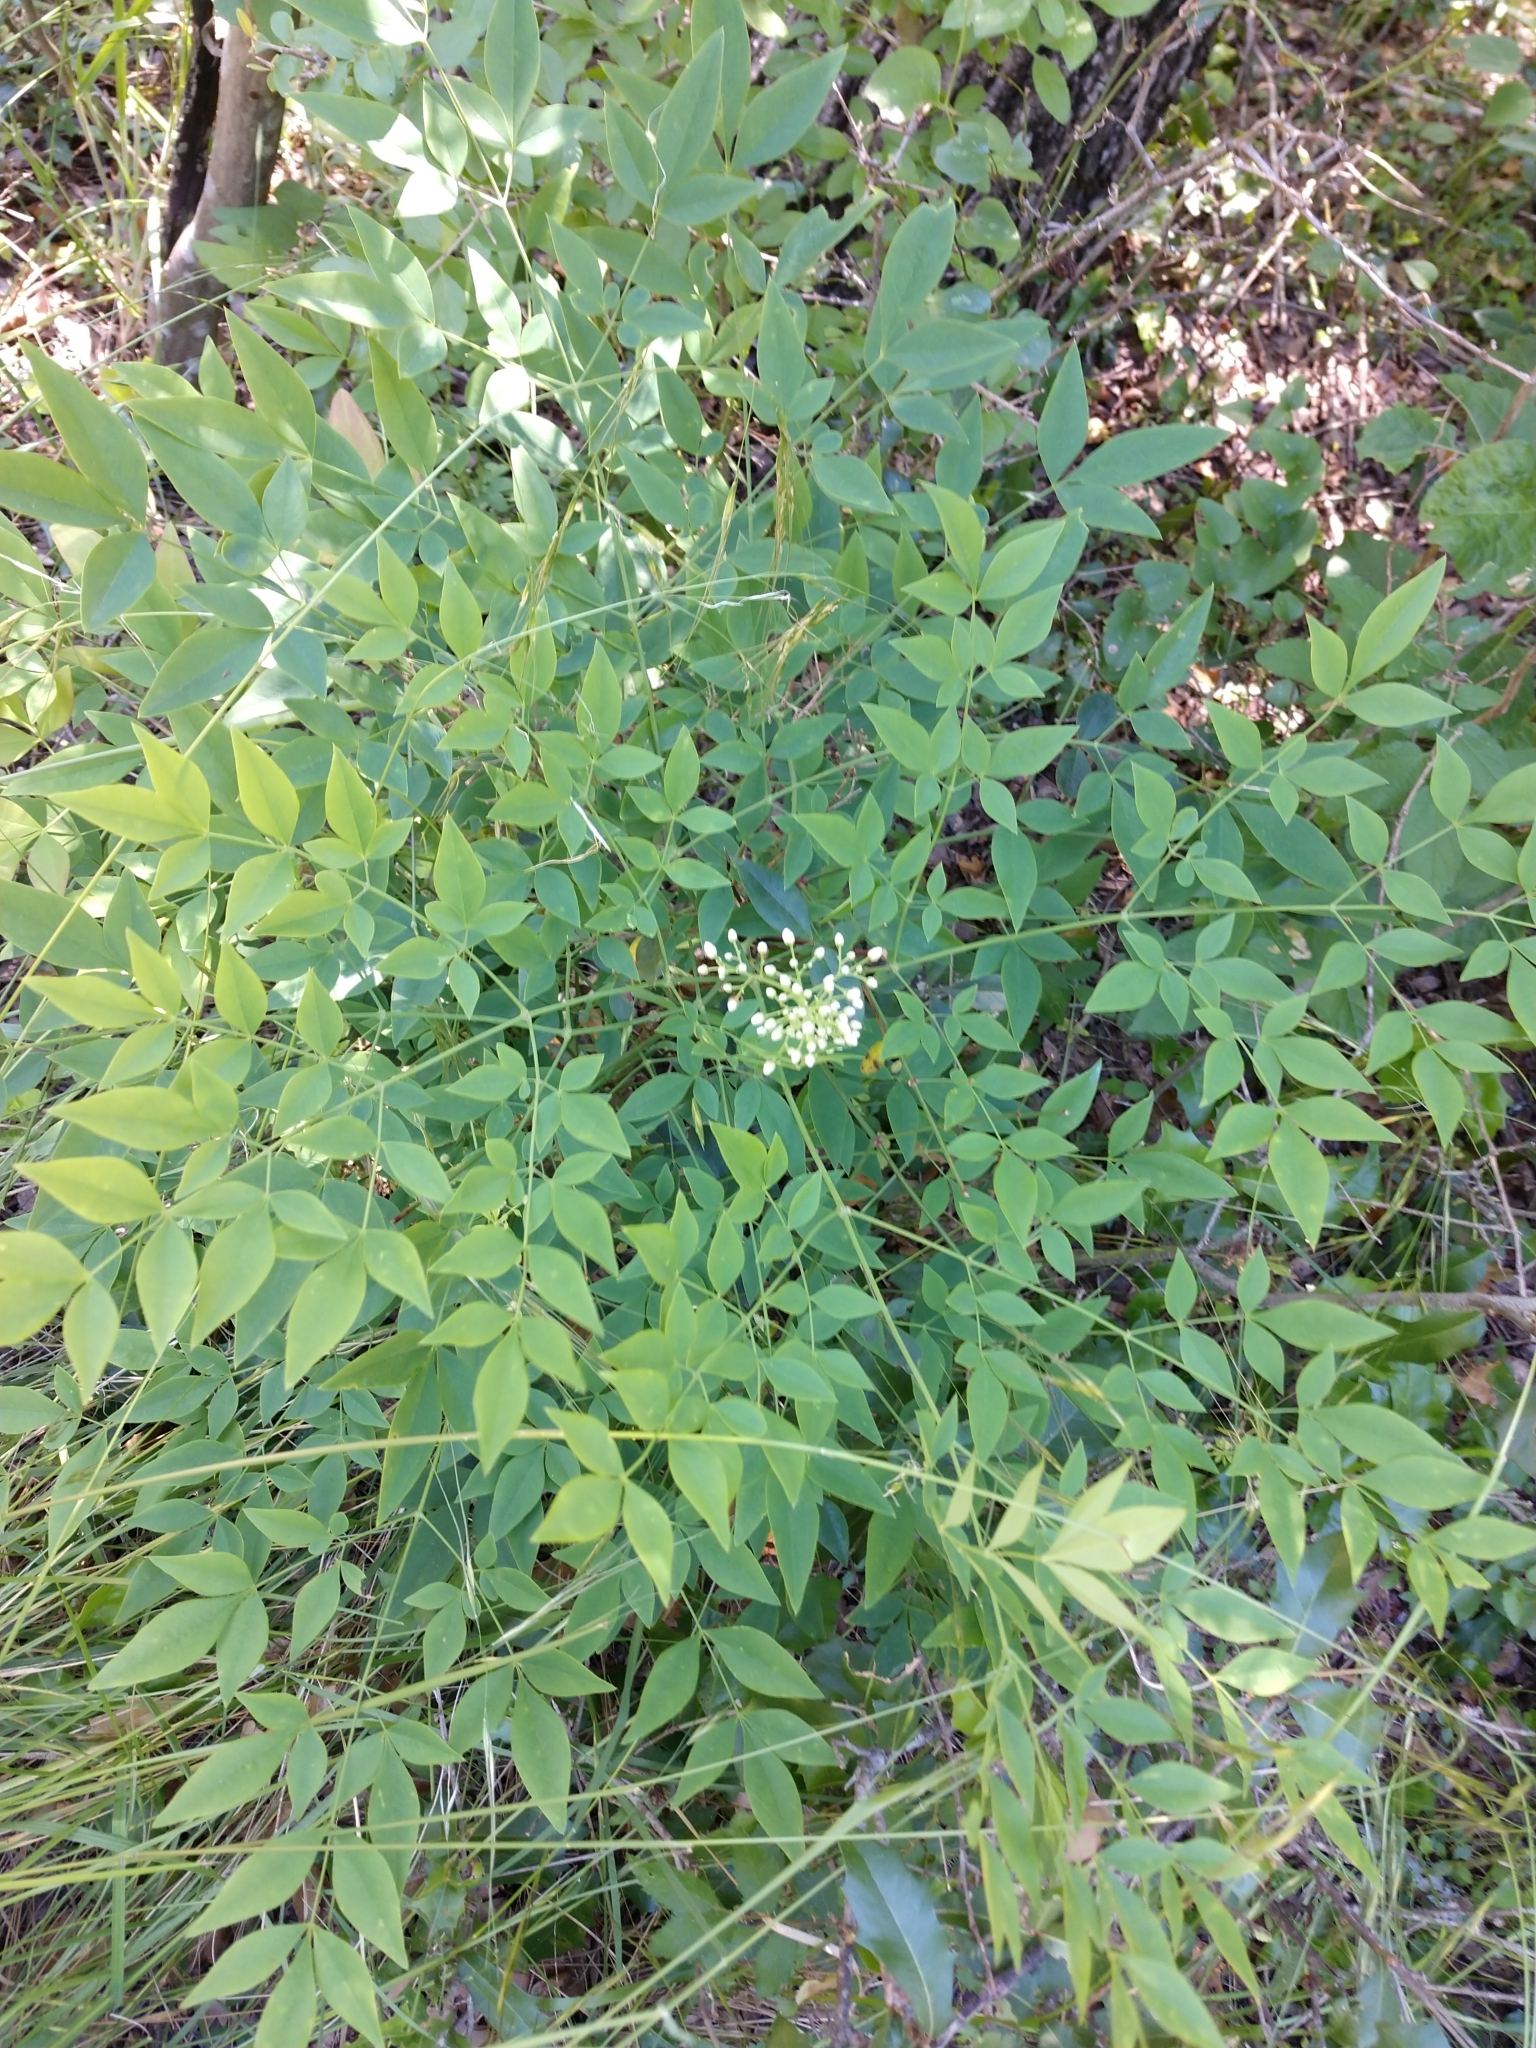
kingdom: Plantae
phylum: Tracheophyta
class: Magnoliopsida
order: Ranunculales
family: Berberidaceae
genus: Nandina
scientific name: Nandina domestica
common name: Sacred bamboo
